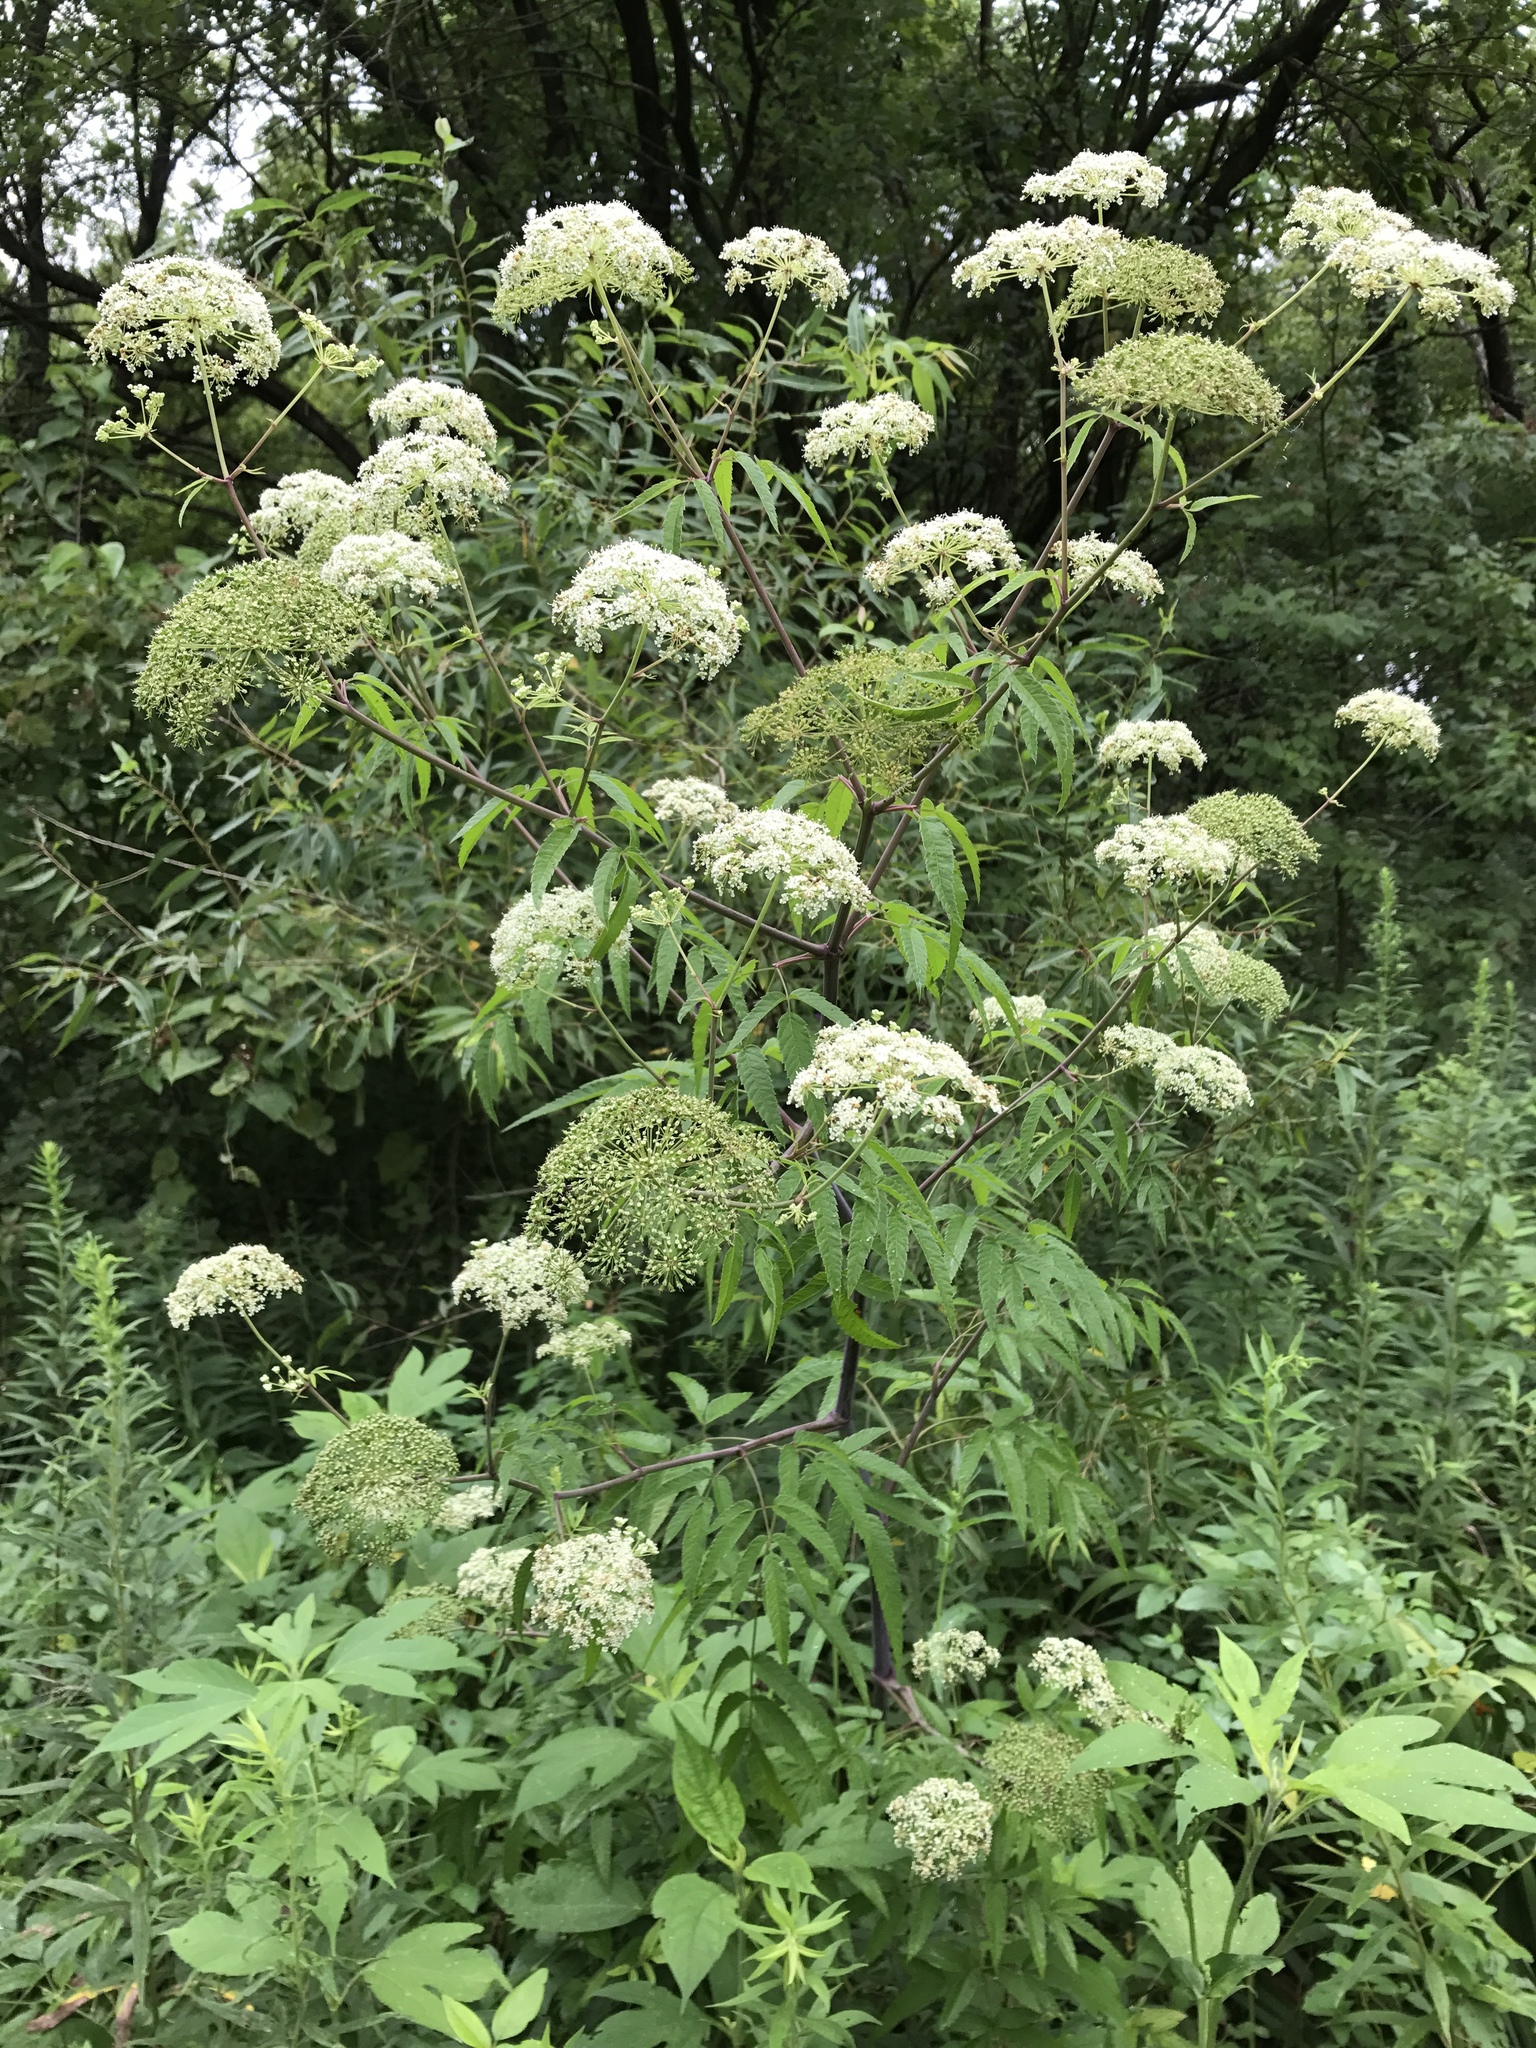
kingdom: Plantae
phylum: Tracheophyta
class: Magnoliopsida
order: Apiales
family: Apiaceae
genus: Cicuta
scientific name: Cicuta maculata
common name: Spotted cowbane
